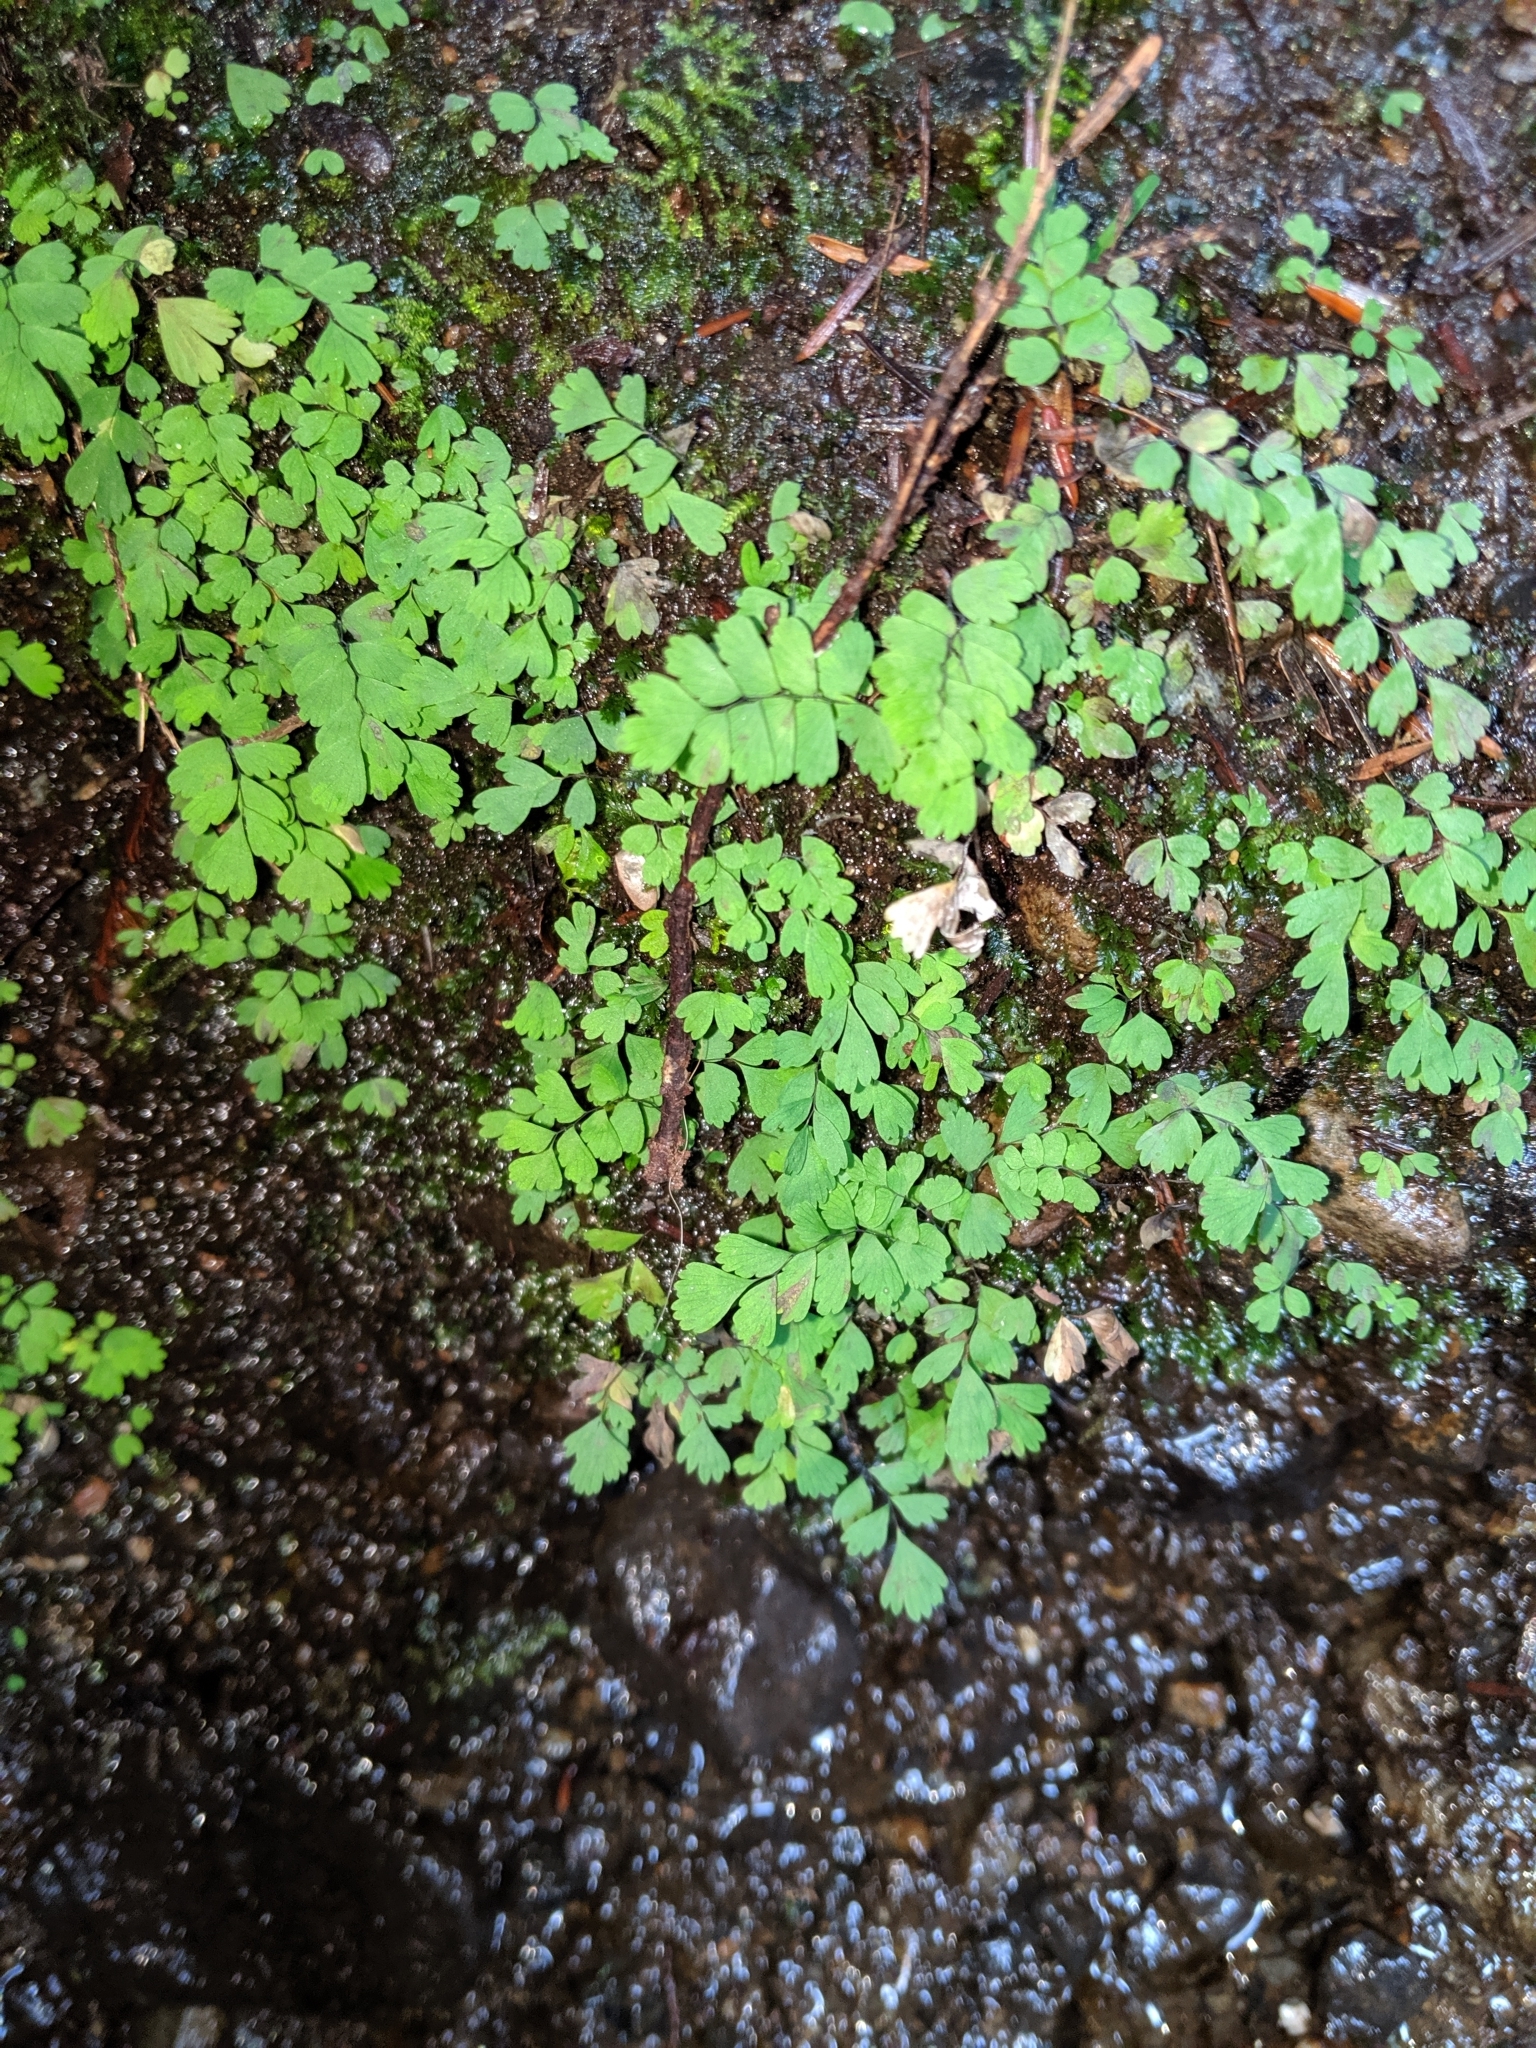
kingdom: Plantae
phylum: Tracheophyta
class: Polypodiopsida
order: Polypodiales
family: Pteridaceae
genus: Adiantum
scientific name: Adiantum aleuticum
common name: Aleutian maidenhair fern
